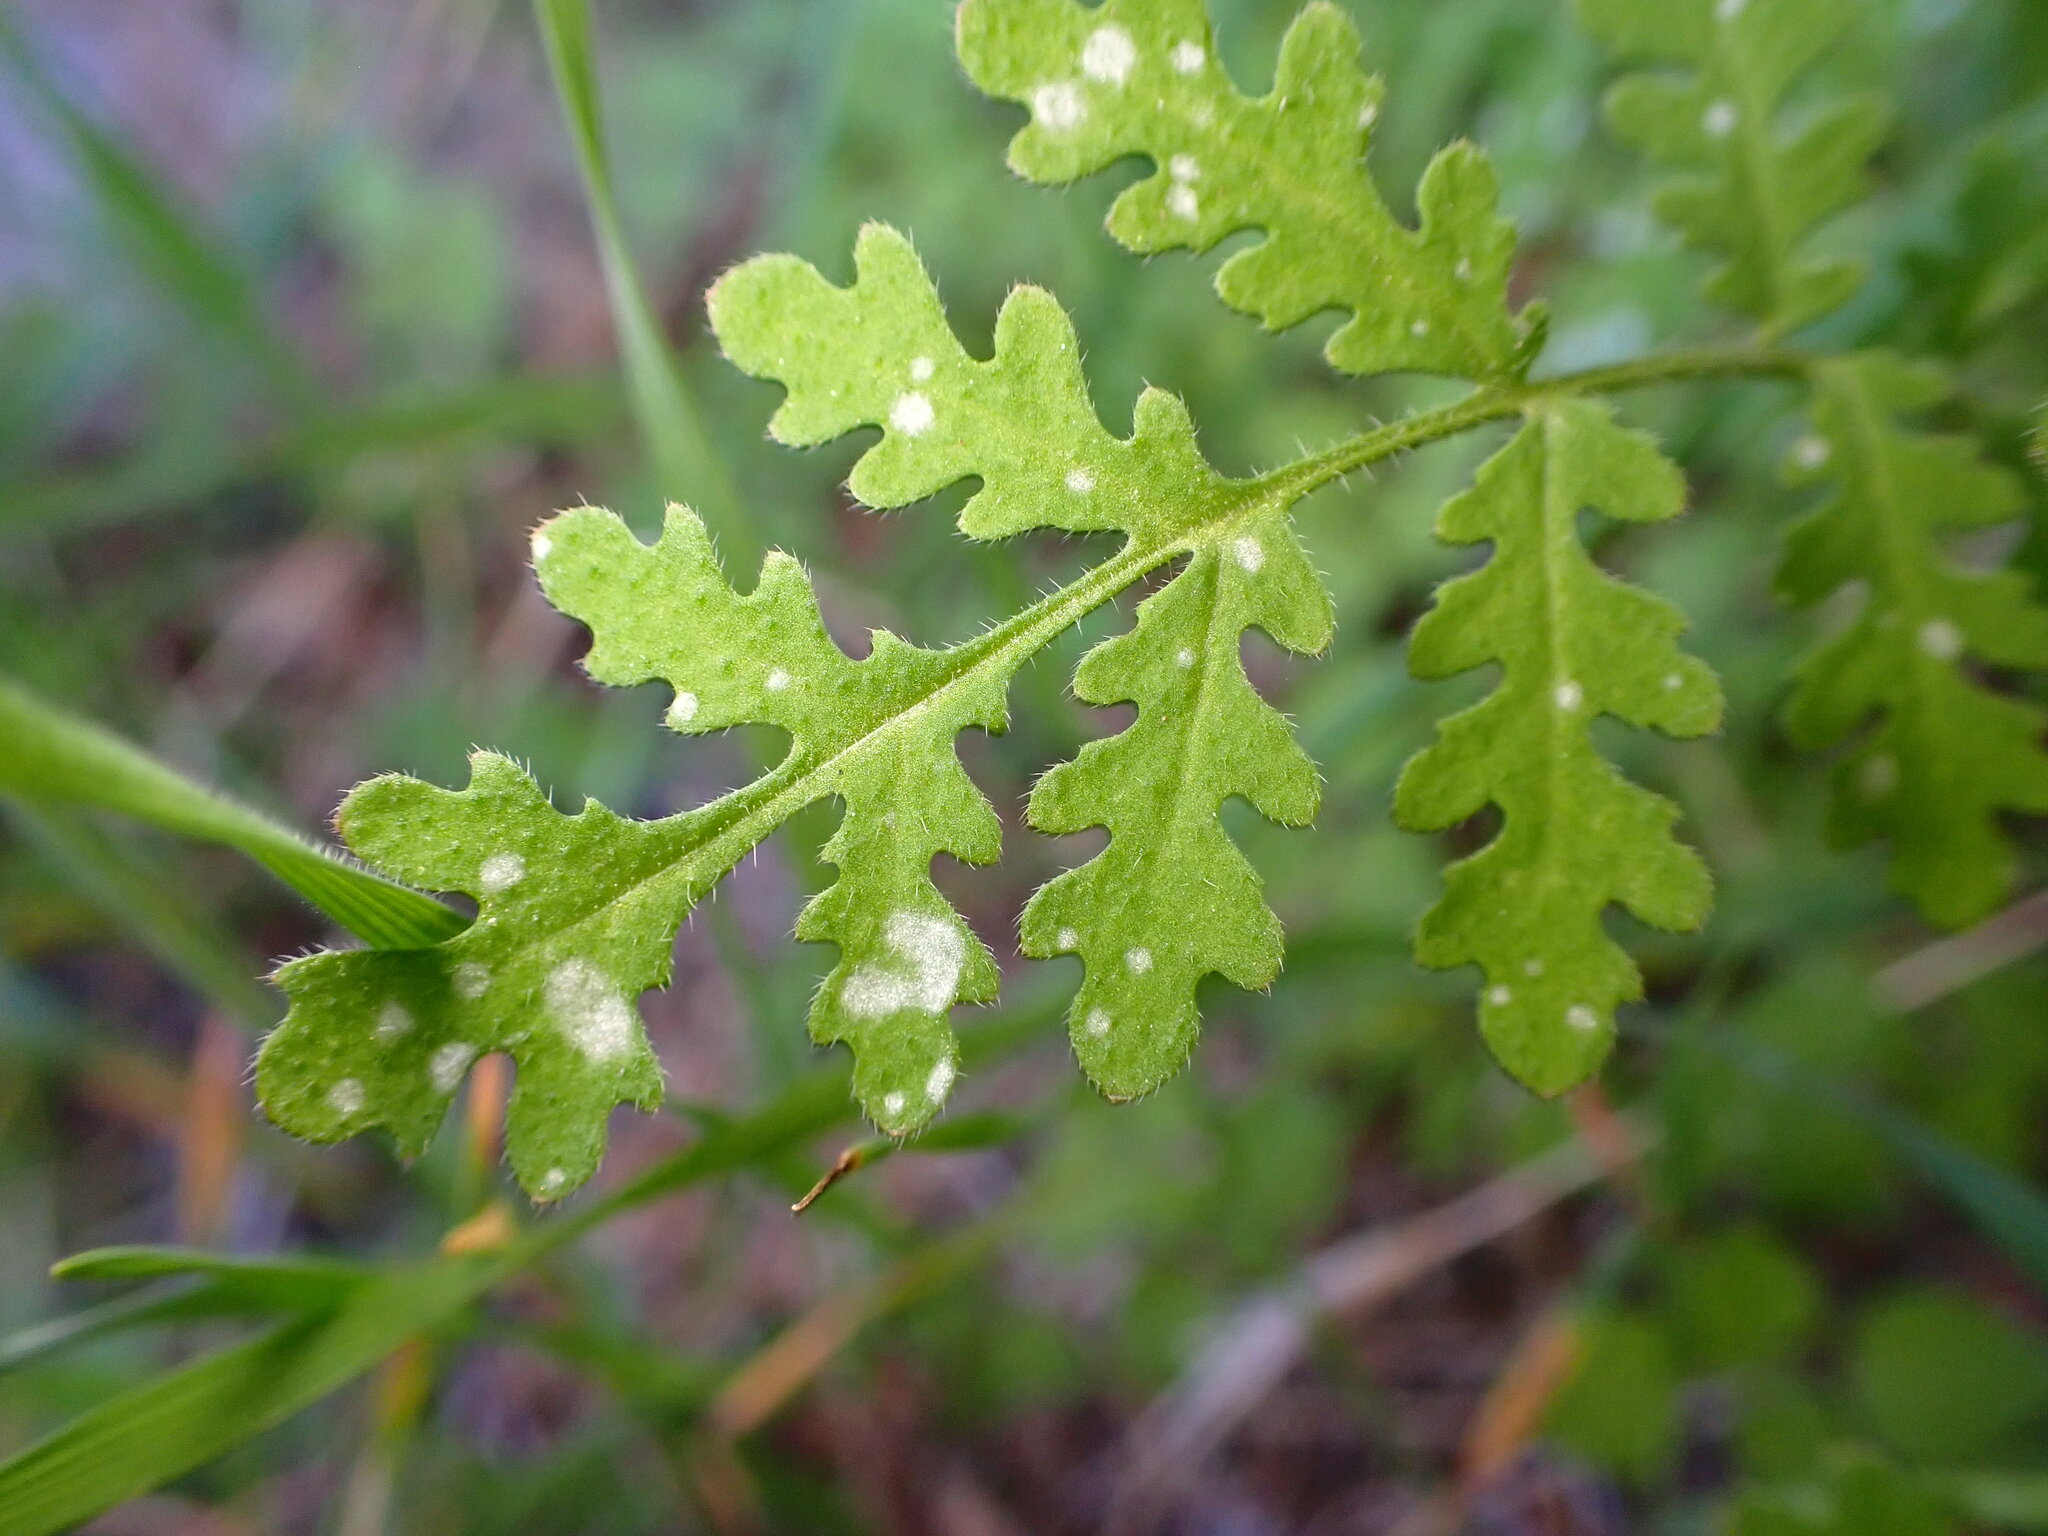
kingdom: Plantae
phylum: Tracheophyta
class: Magnoliopsida
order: Boraginales
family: Hydrophyllaceae
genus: Eucrypta
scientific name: Eucrypta chrysanthemifolia
